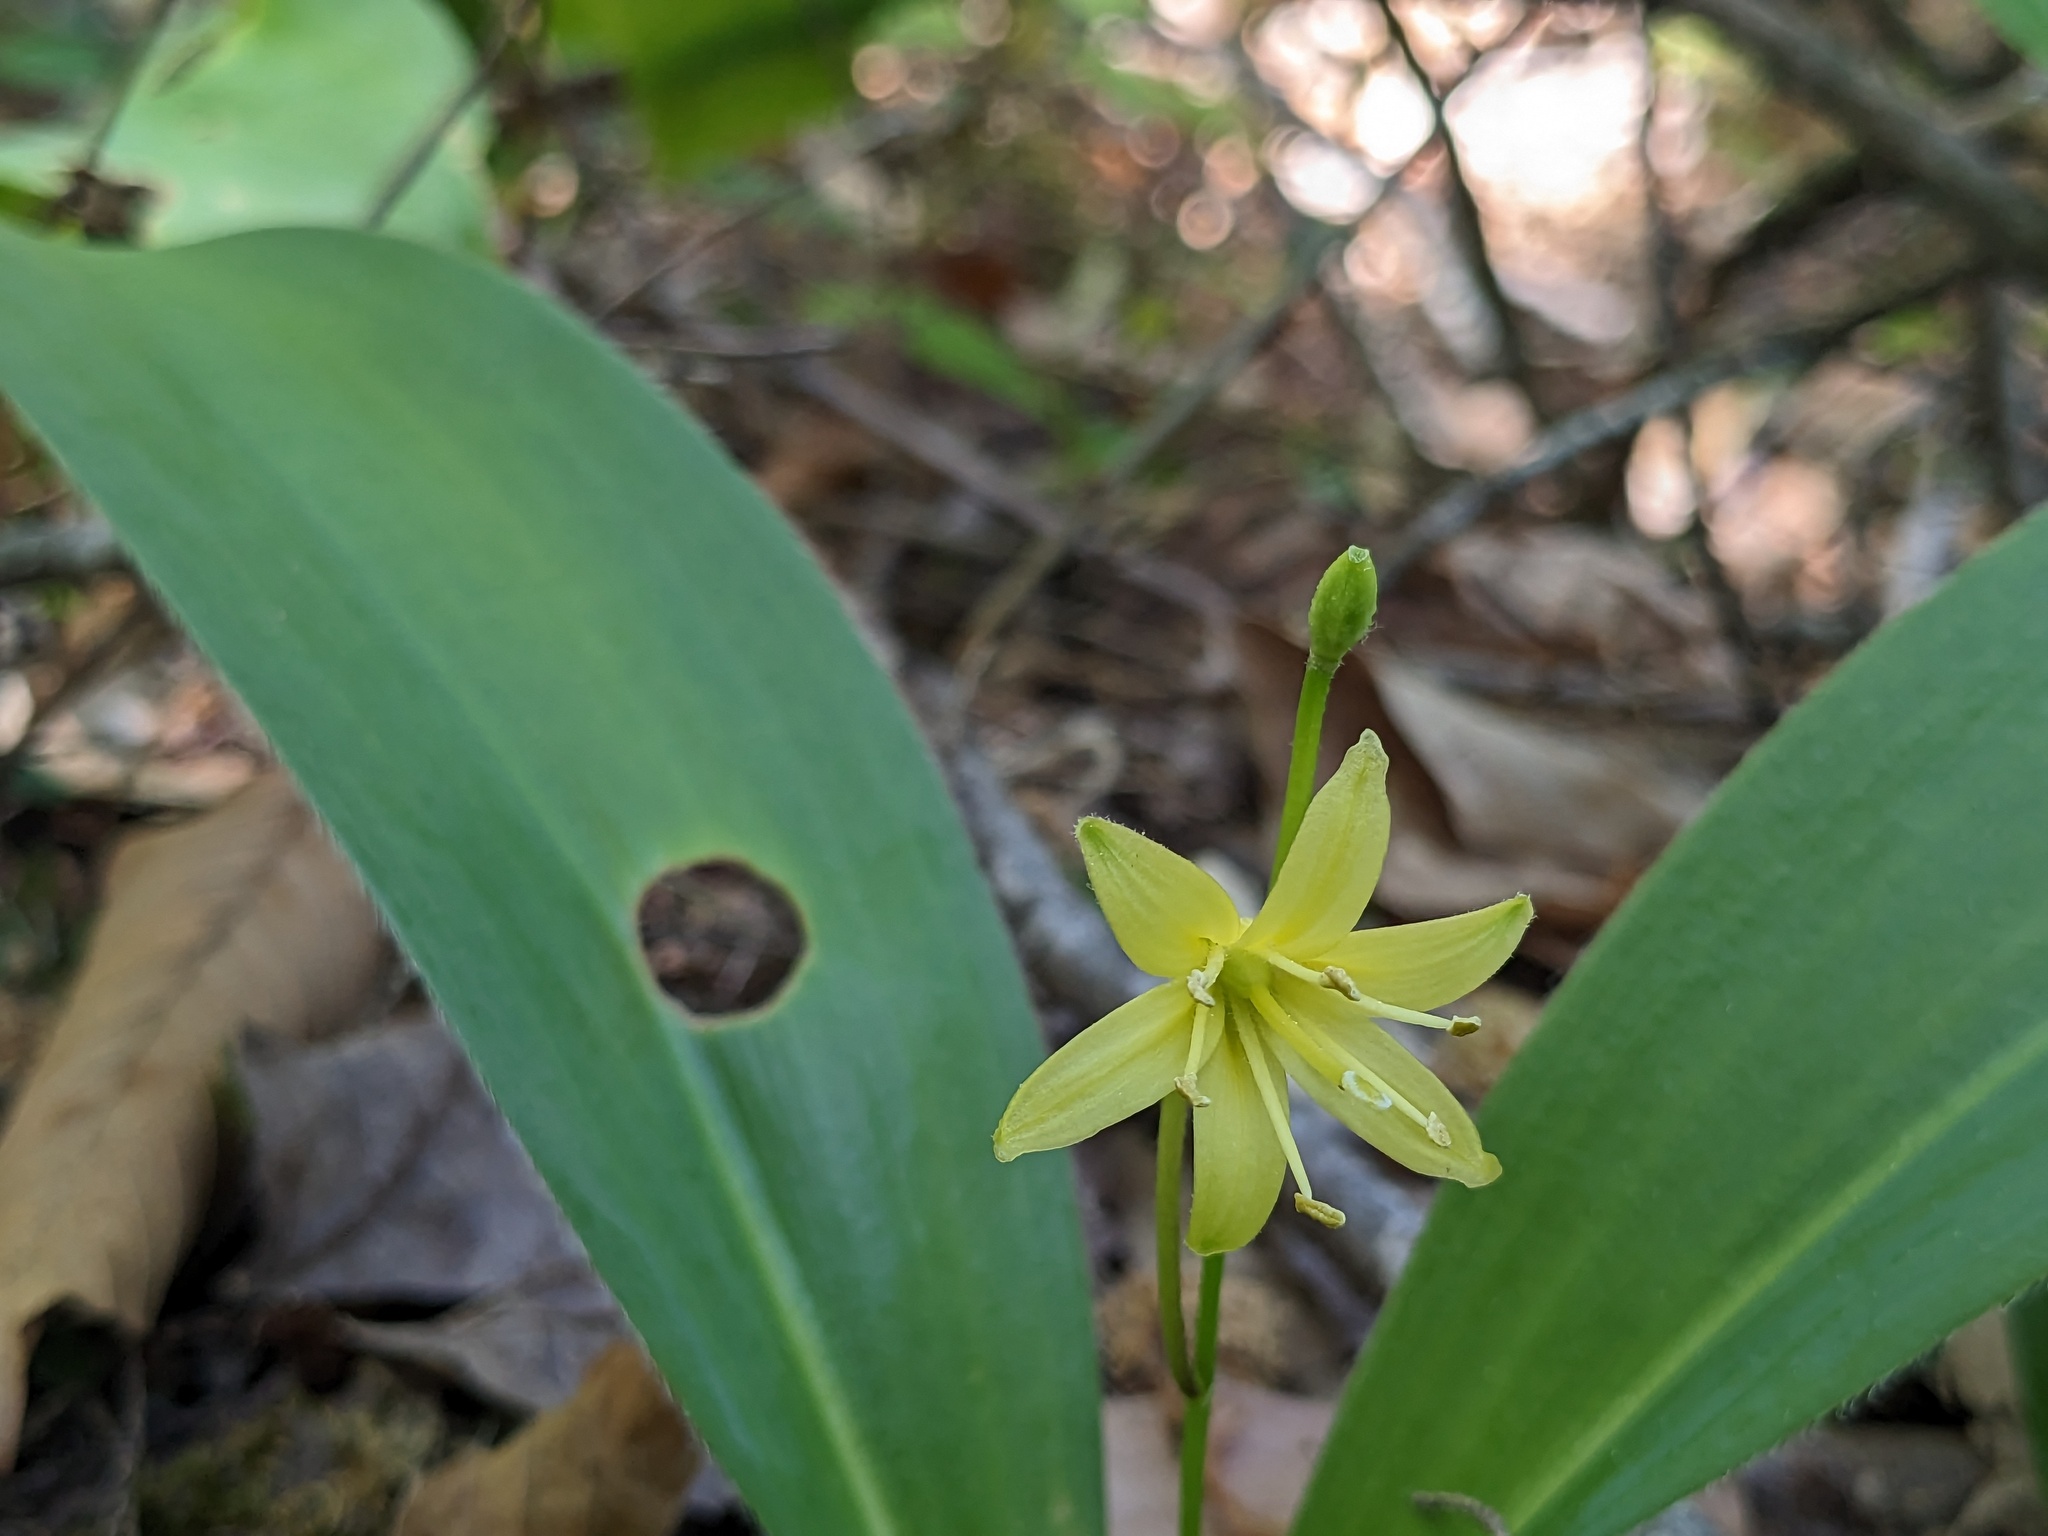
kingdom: Plantae
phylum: Tracheophyta
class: Liliopsida
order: Liliales
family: Liliaceae
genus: Clintonia
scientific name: Clintonia borealis
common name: Yellow clintonia
